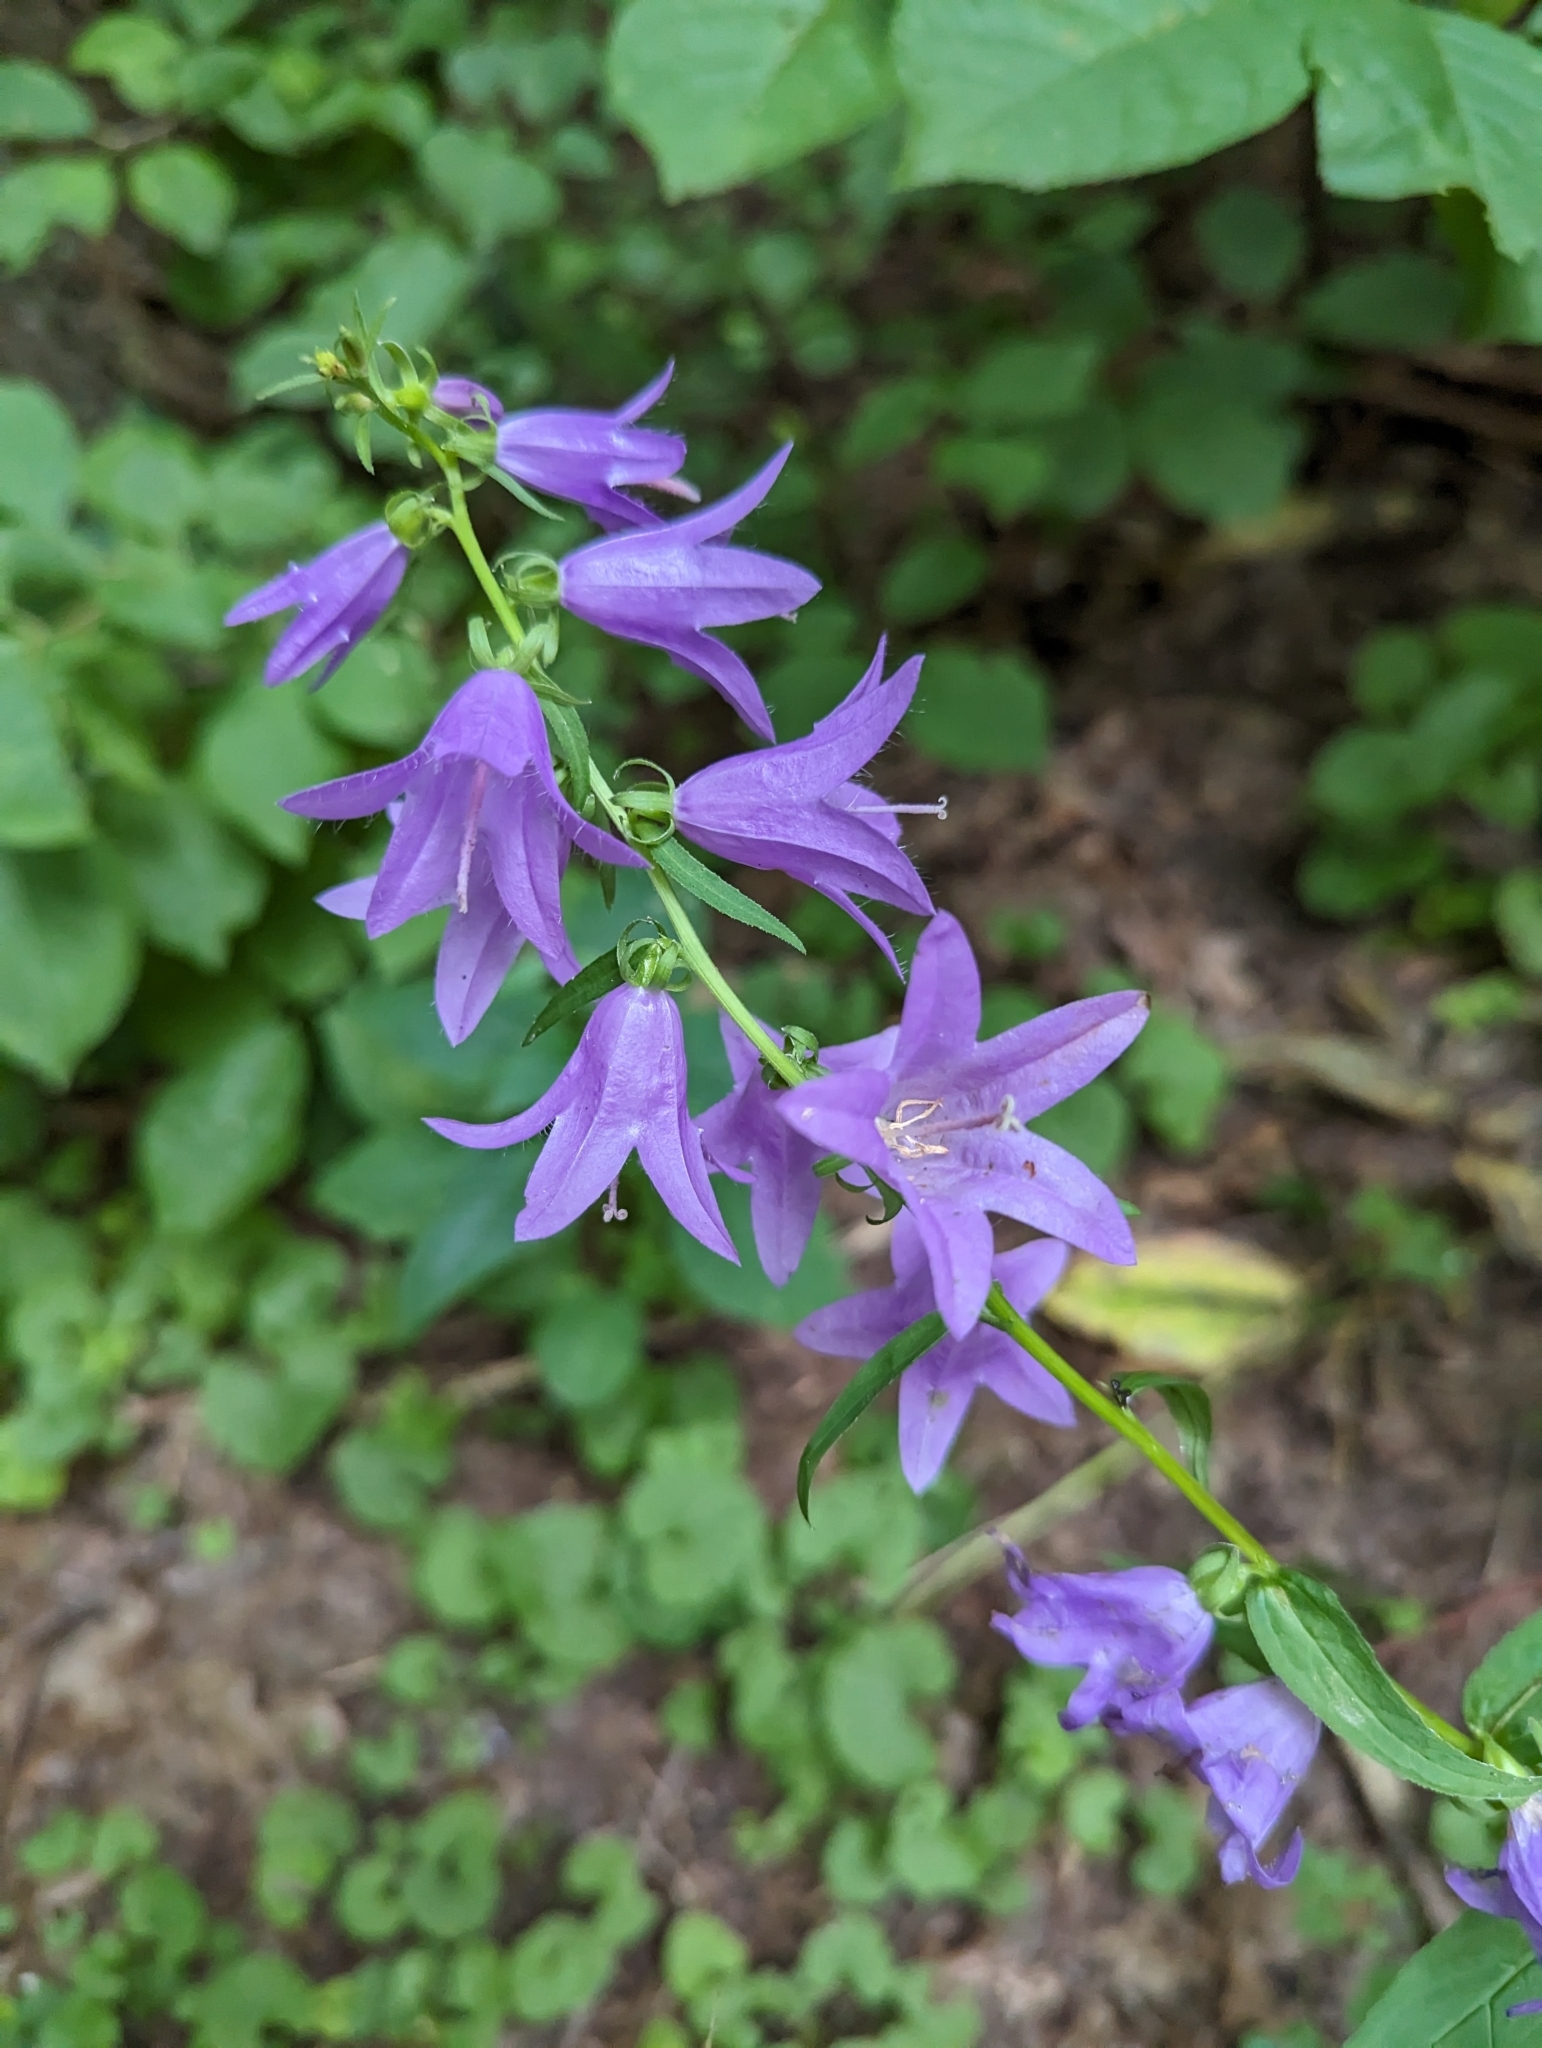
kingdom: Plantae
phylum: Tracheophyta
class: Magnoliopsida
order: Asterales
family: Campanulaceae
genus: Campanula
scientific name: Campanula rapunculoides
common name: Creeping bellflower
